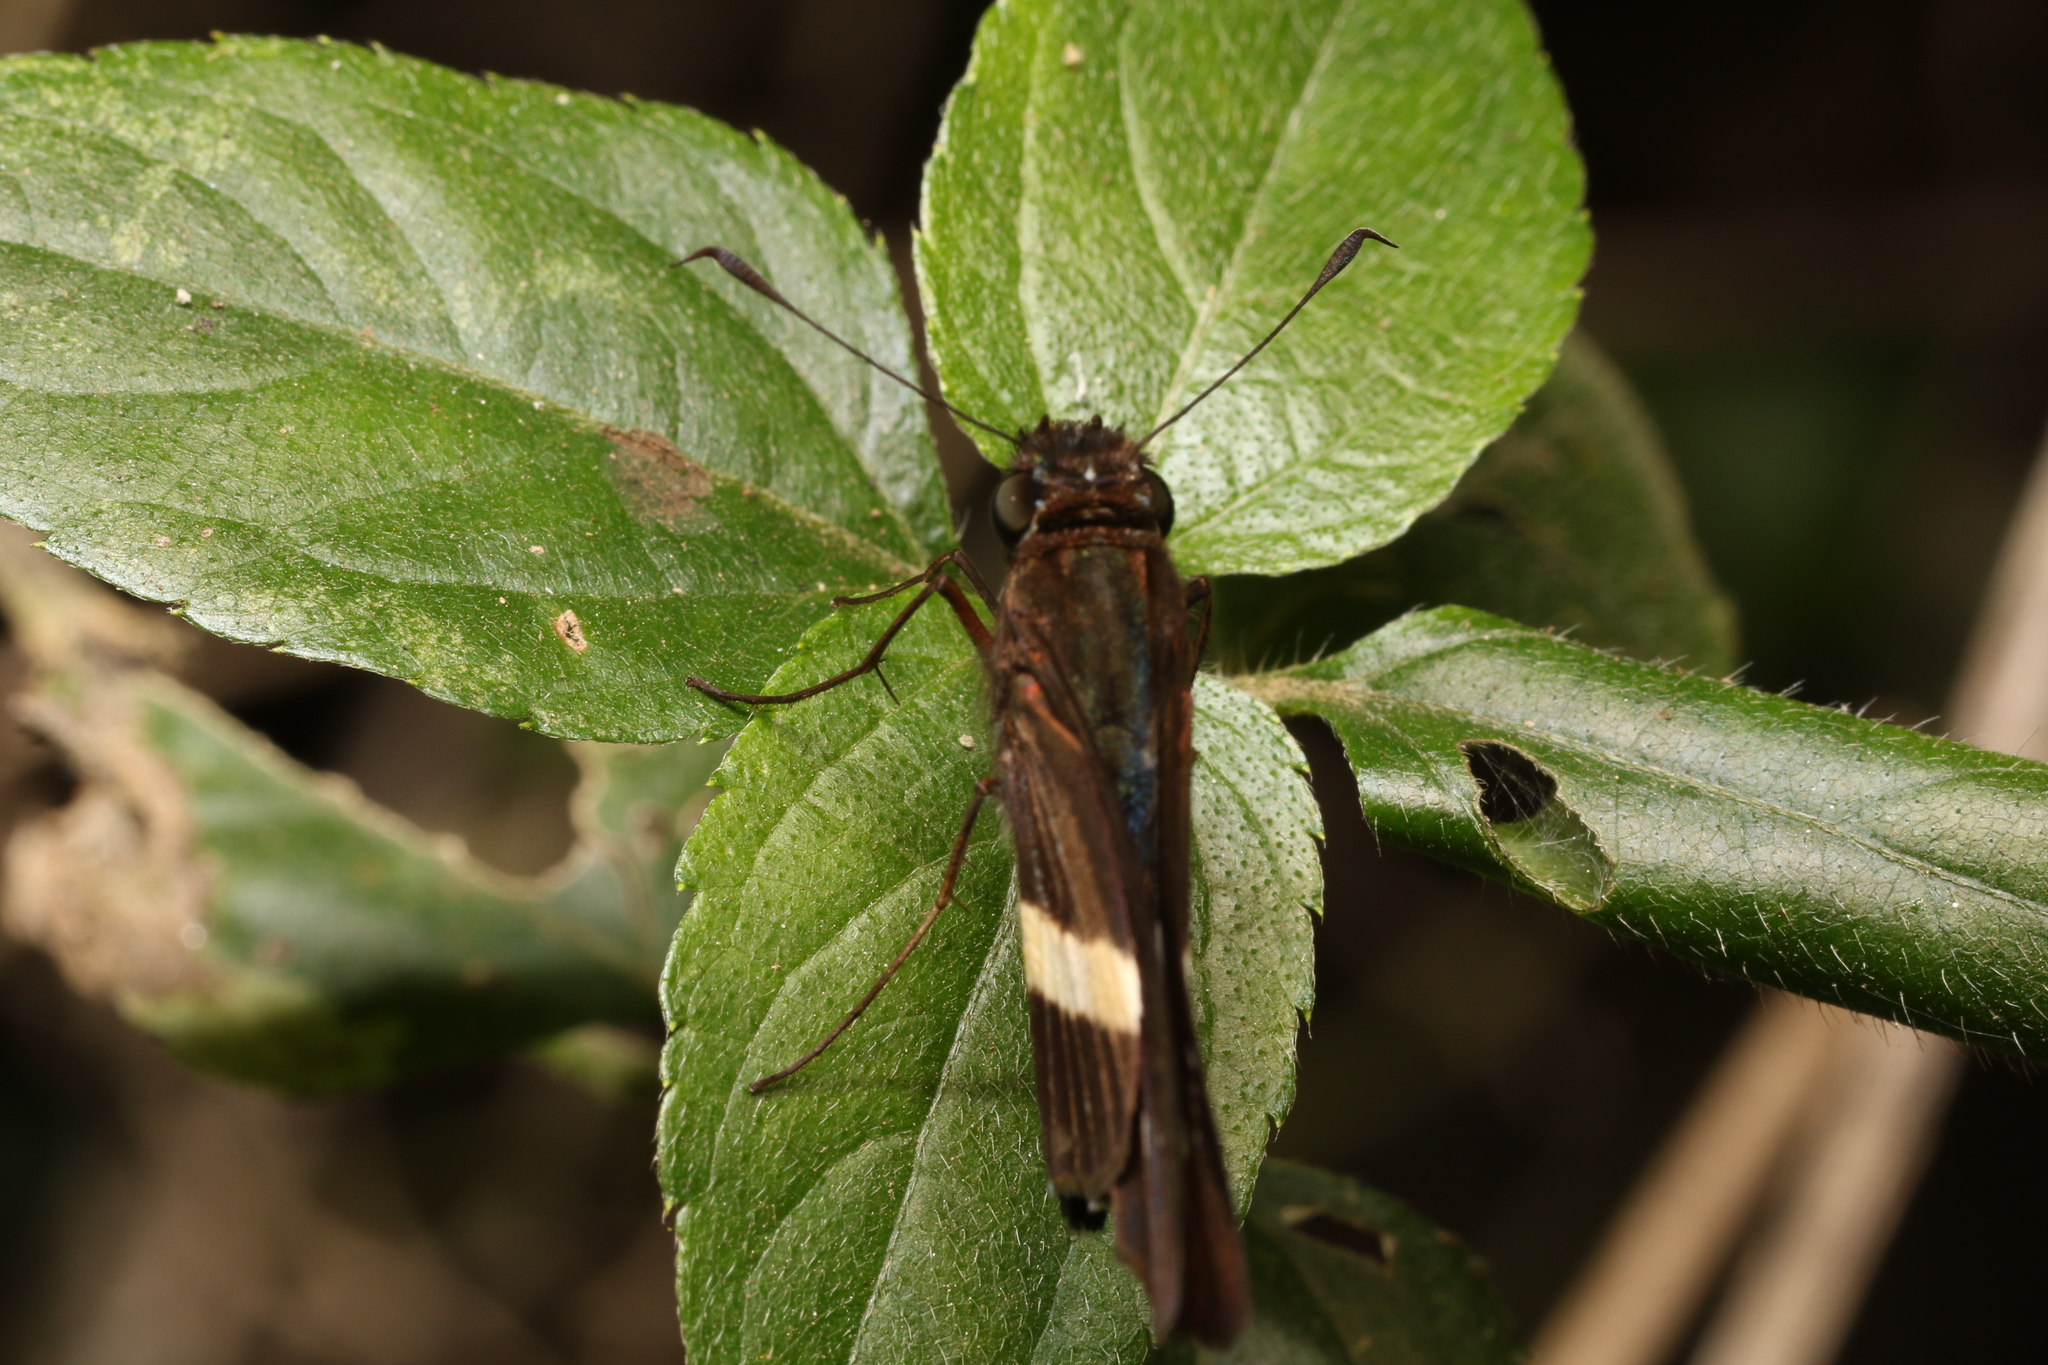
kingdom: Animalia
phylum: Arthropoda
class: Insecta
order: Lepidoptera
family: Hesperiidae
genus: Zenis
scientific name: Zenis jebus
